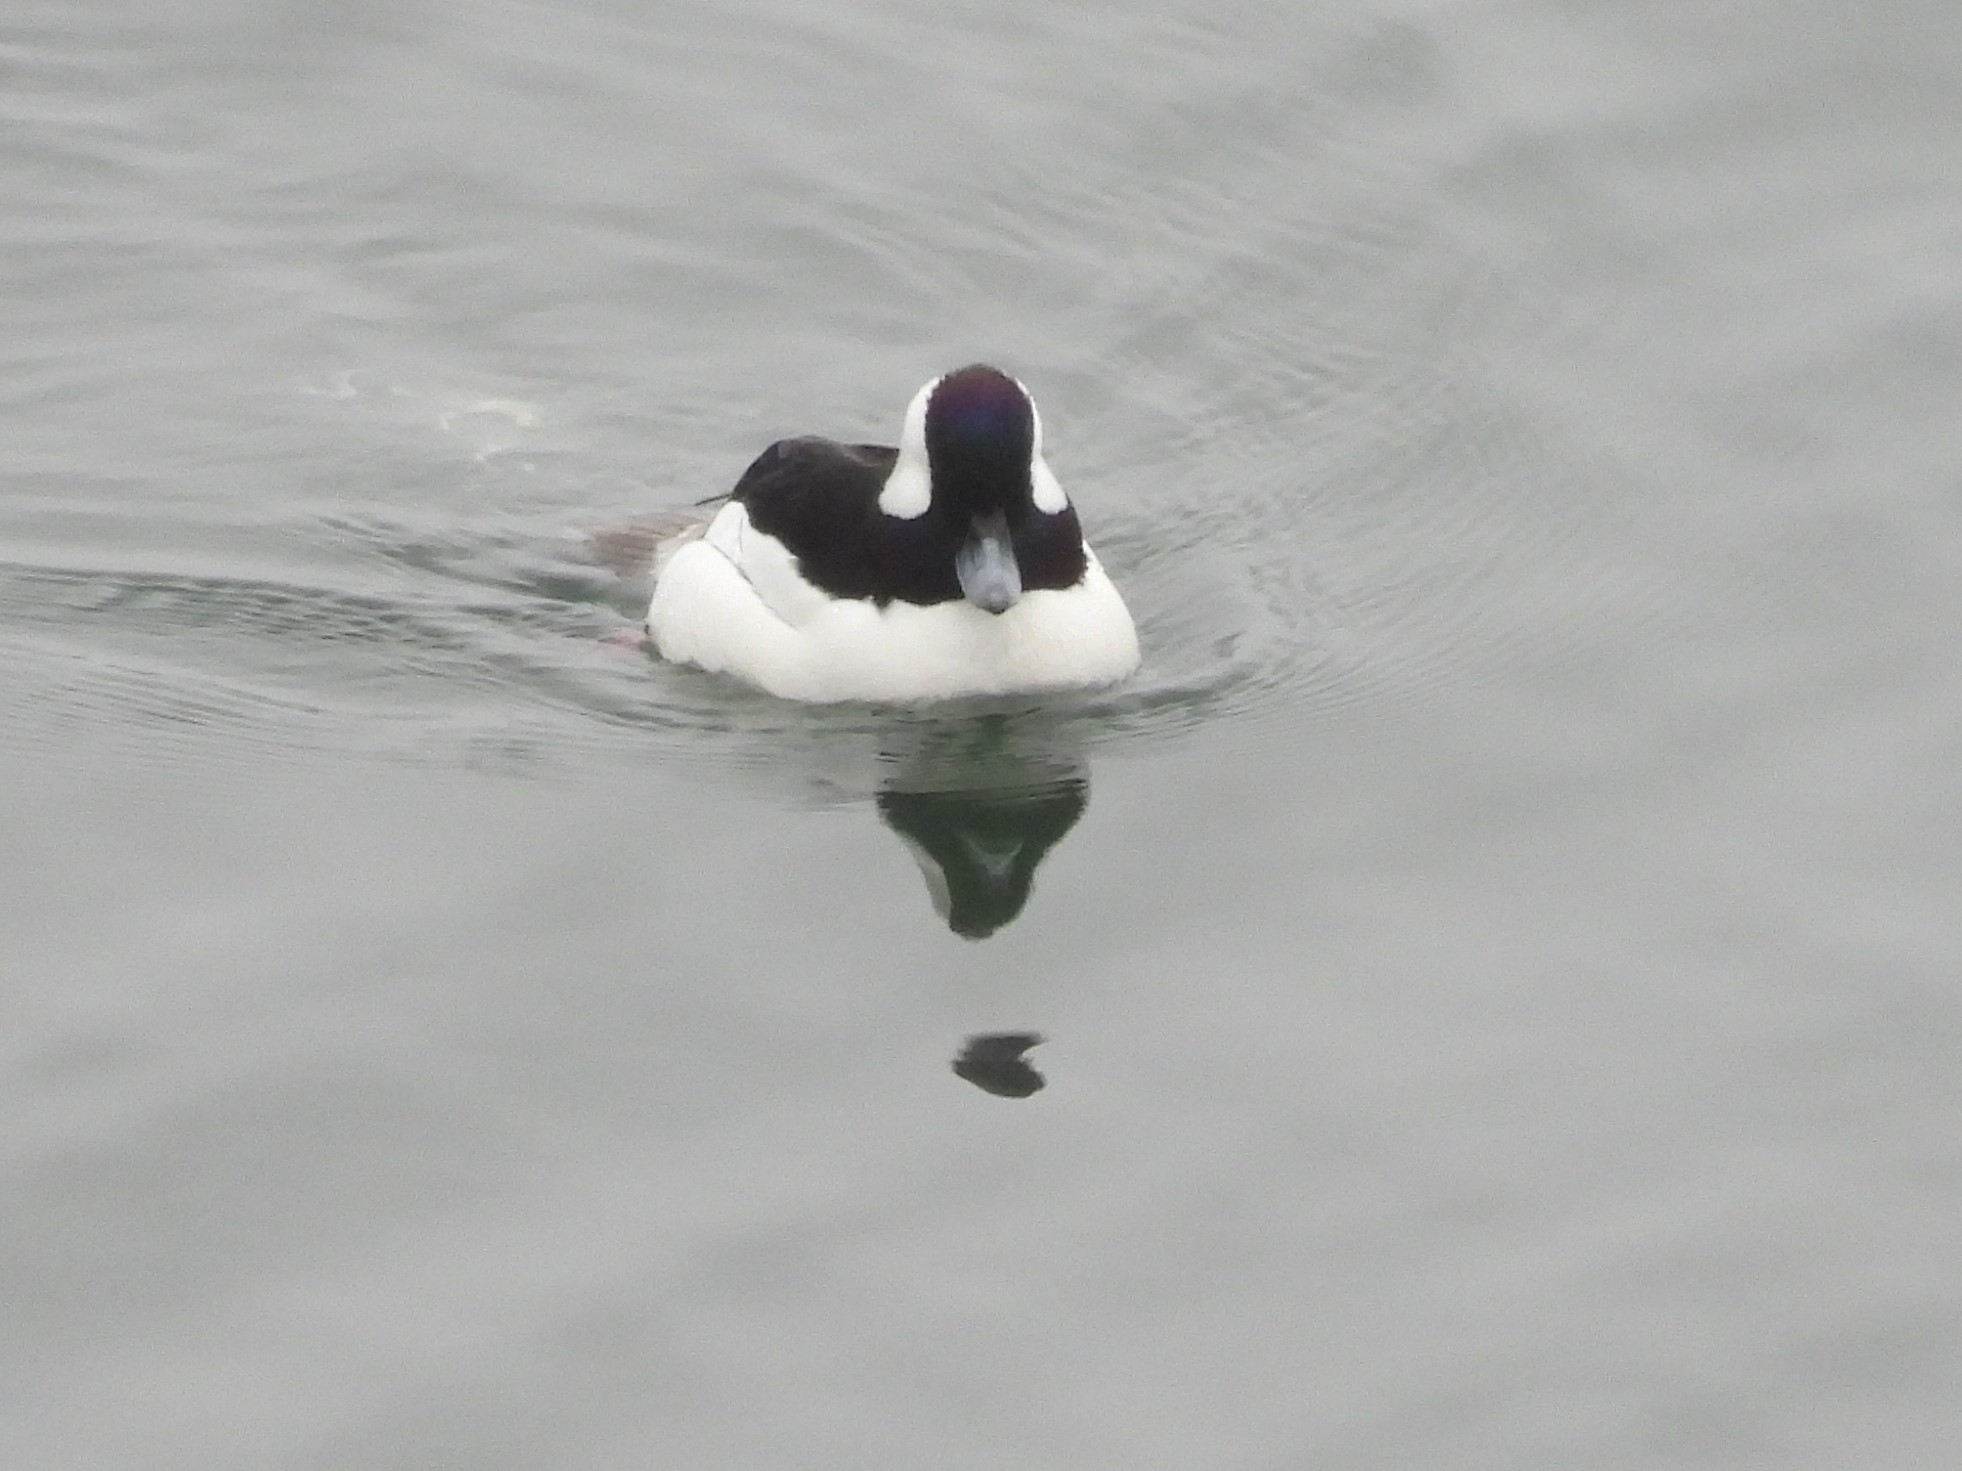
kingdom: Animalia
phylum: Chordata
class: Aves
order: Anseriformes
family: Anatidae
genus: Bucephala
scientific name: Bucephala albeola
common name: Bufflehead
